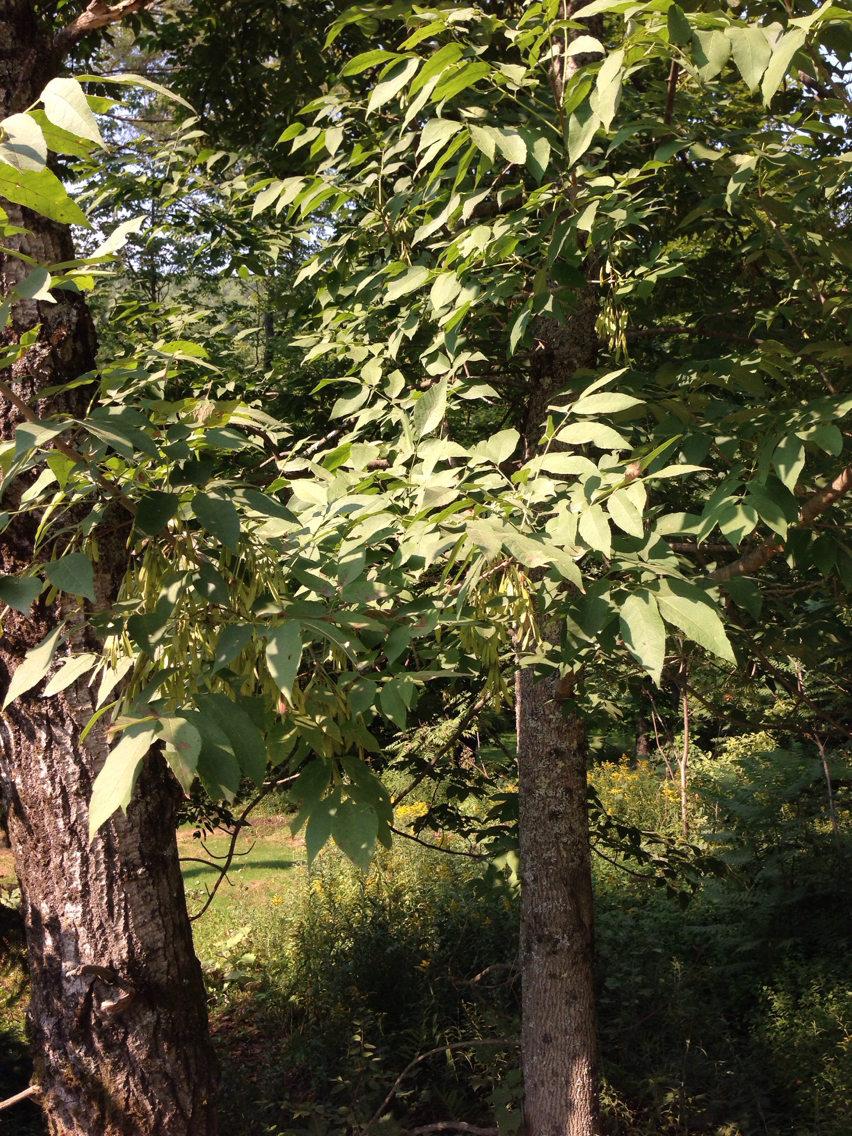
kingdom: Plantae
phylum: Tracheophyta
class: Magnoliopsida
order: Lamiales
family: Oleaceae
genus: Fraxinus
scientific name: Fraxinus americana
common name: White ash
